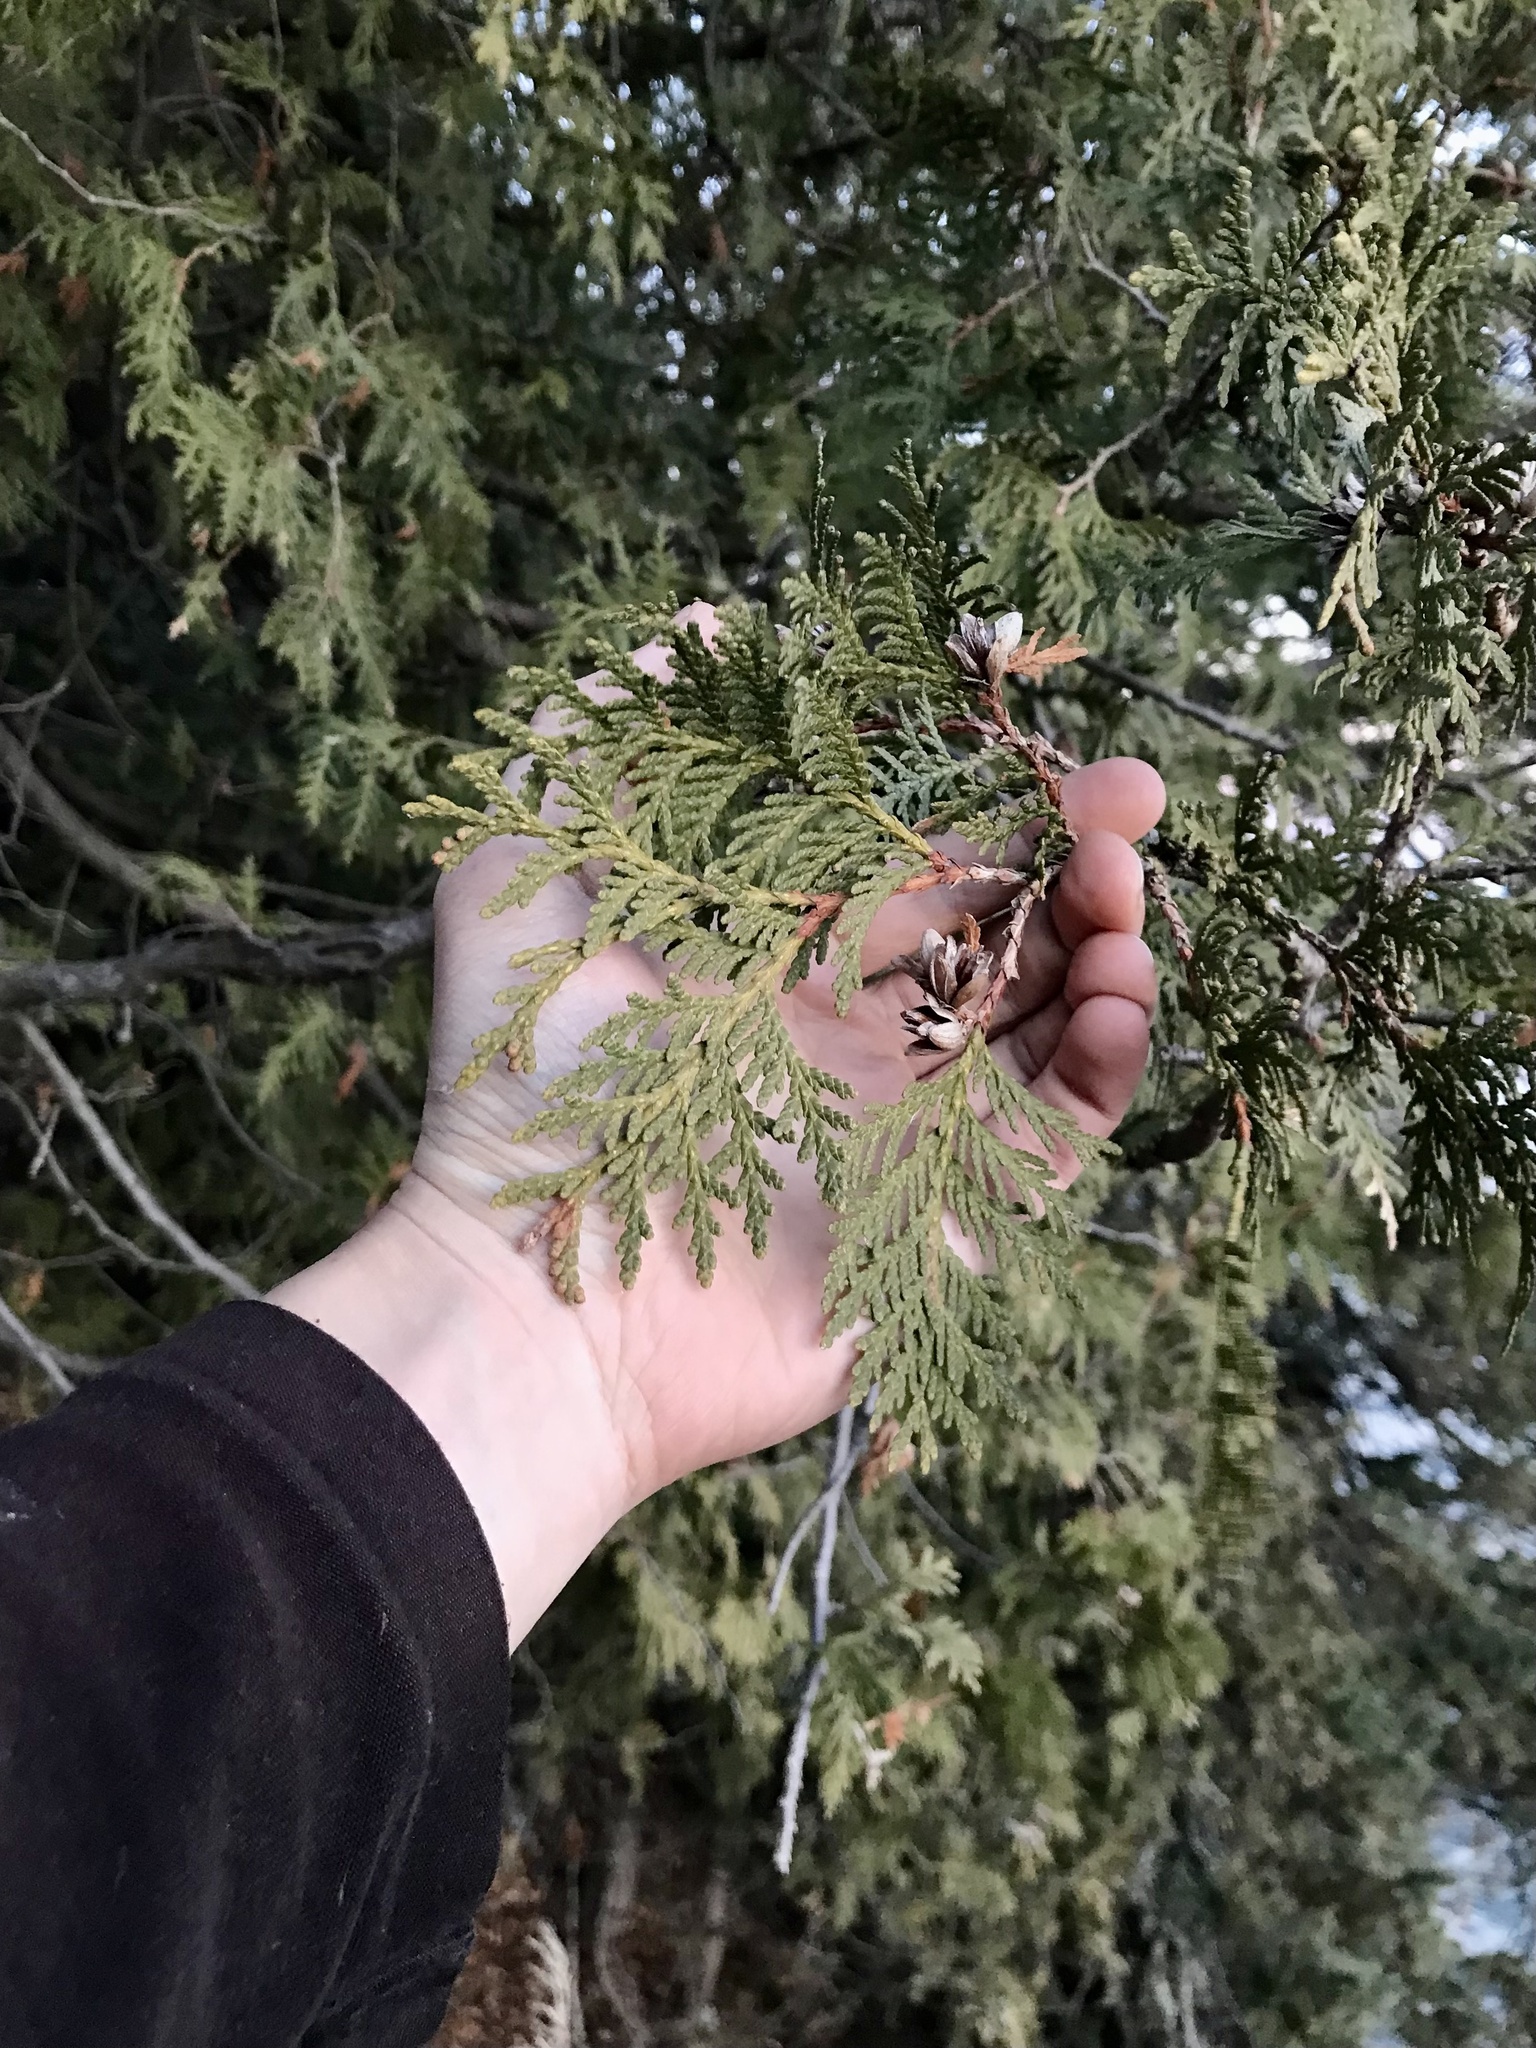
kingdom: Plantae
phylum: Tracheophyta
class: Pinopsida
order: Pinales
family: Cupressaceae
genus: Thuja
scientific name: Thuja occidentalis
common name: Northern white-cedar
